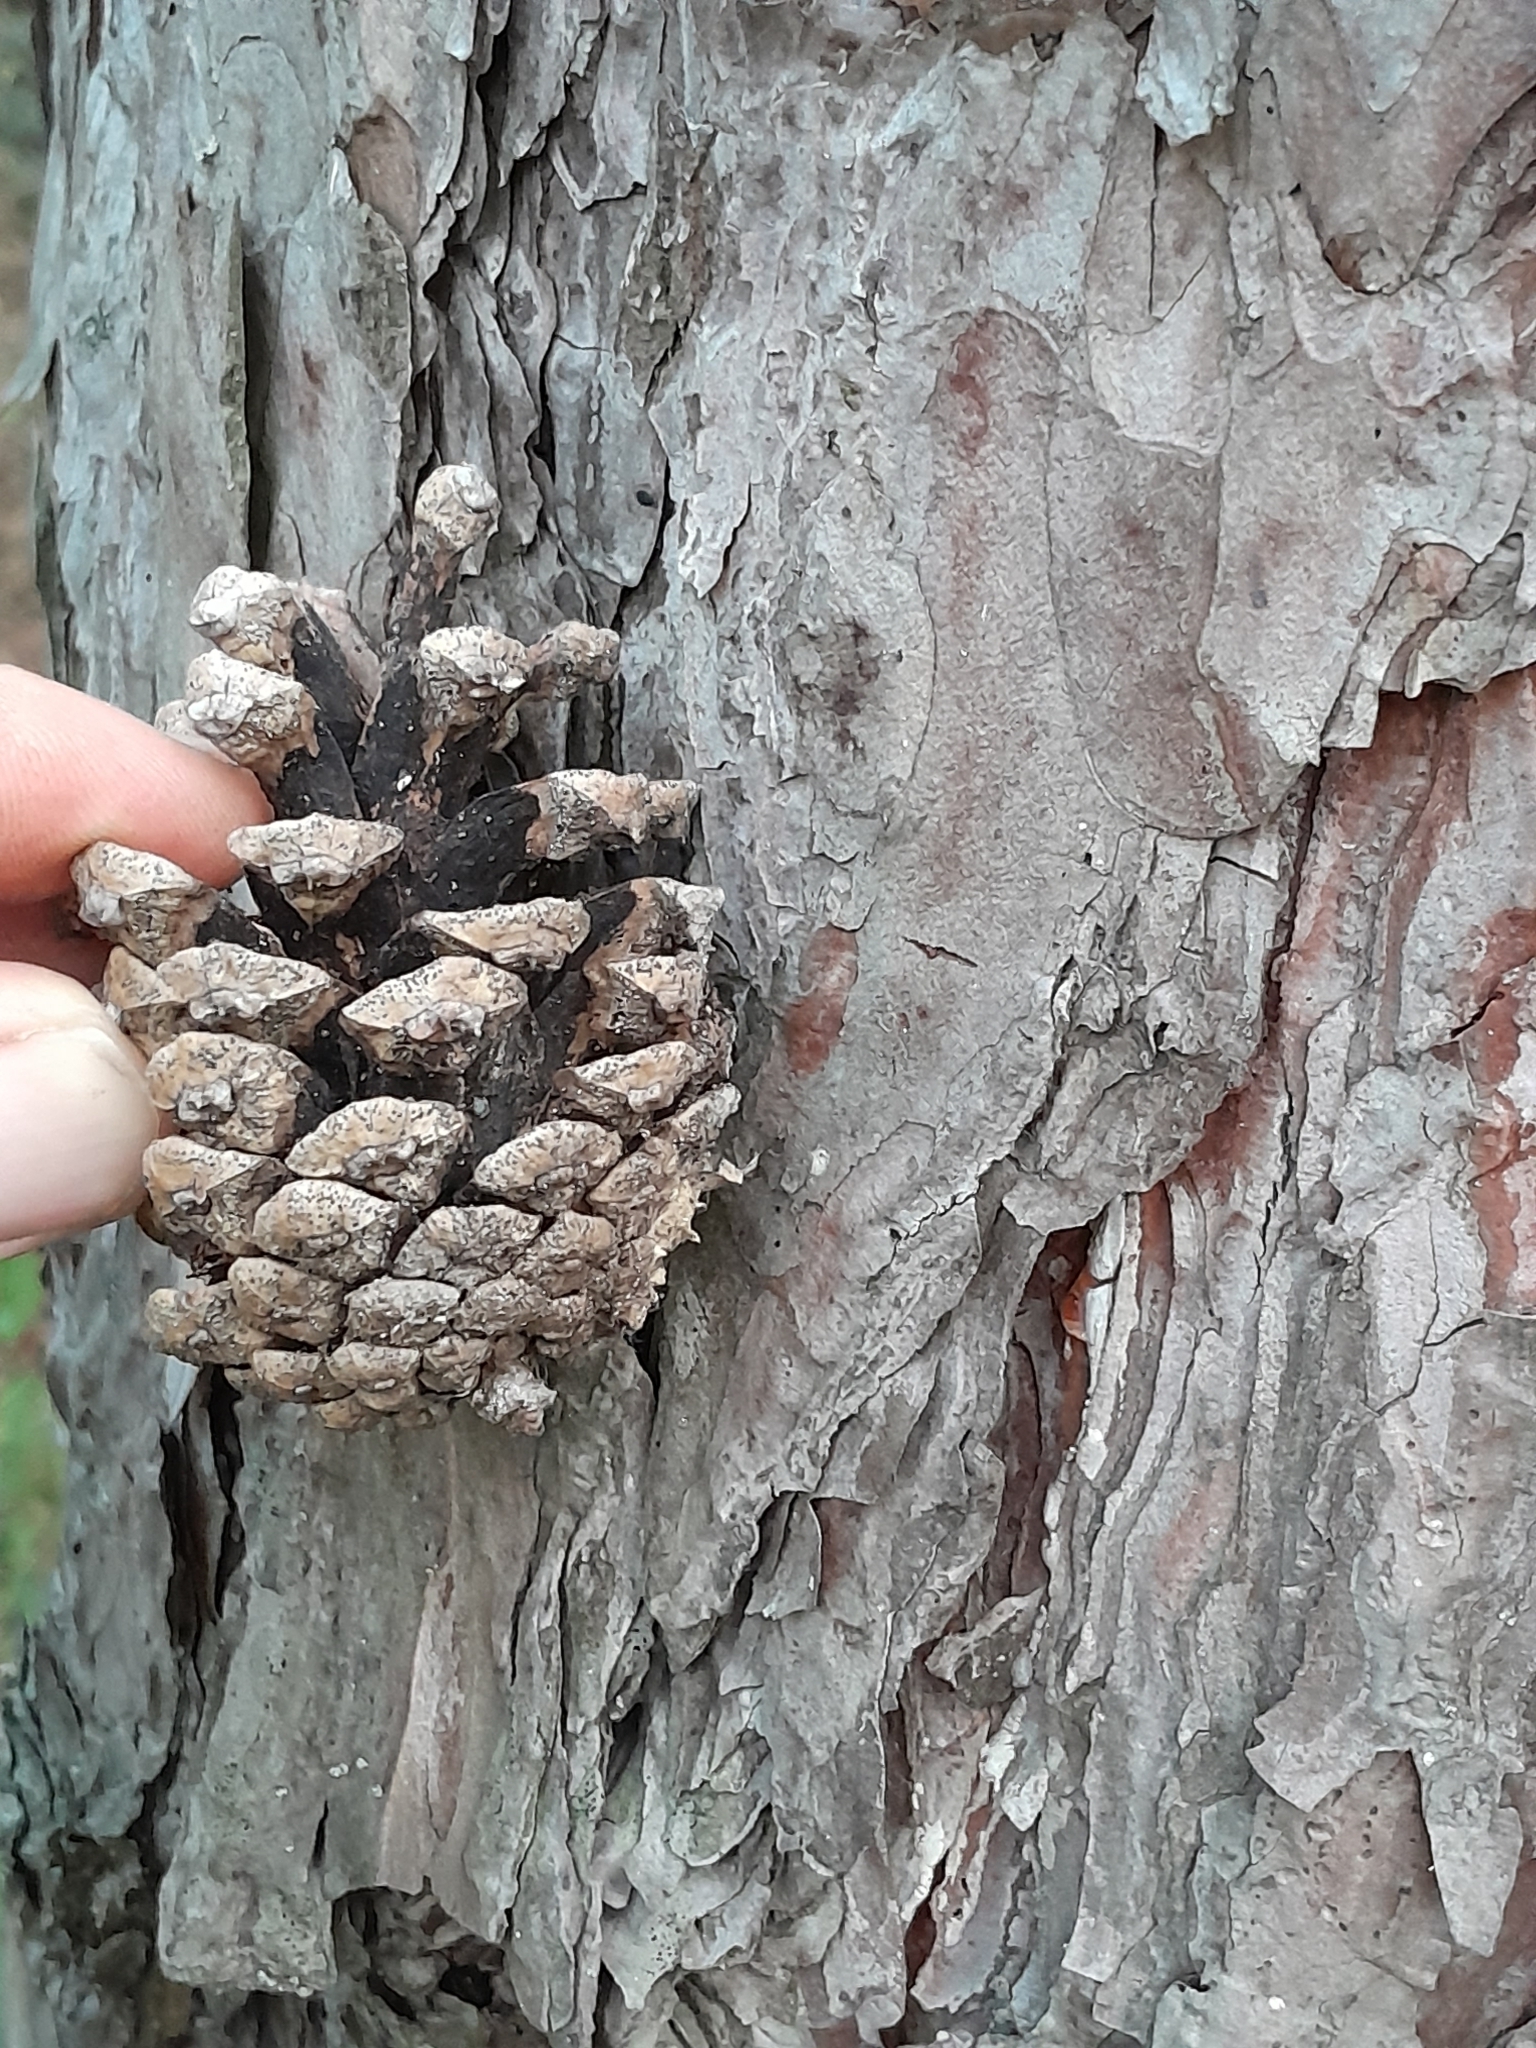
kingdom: Plantae
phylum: Tracheophyta
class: Pinopsida
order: Pinales
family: Pinaceae
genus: Pinus
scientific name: Pinus sylvestris
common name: Scots pine
